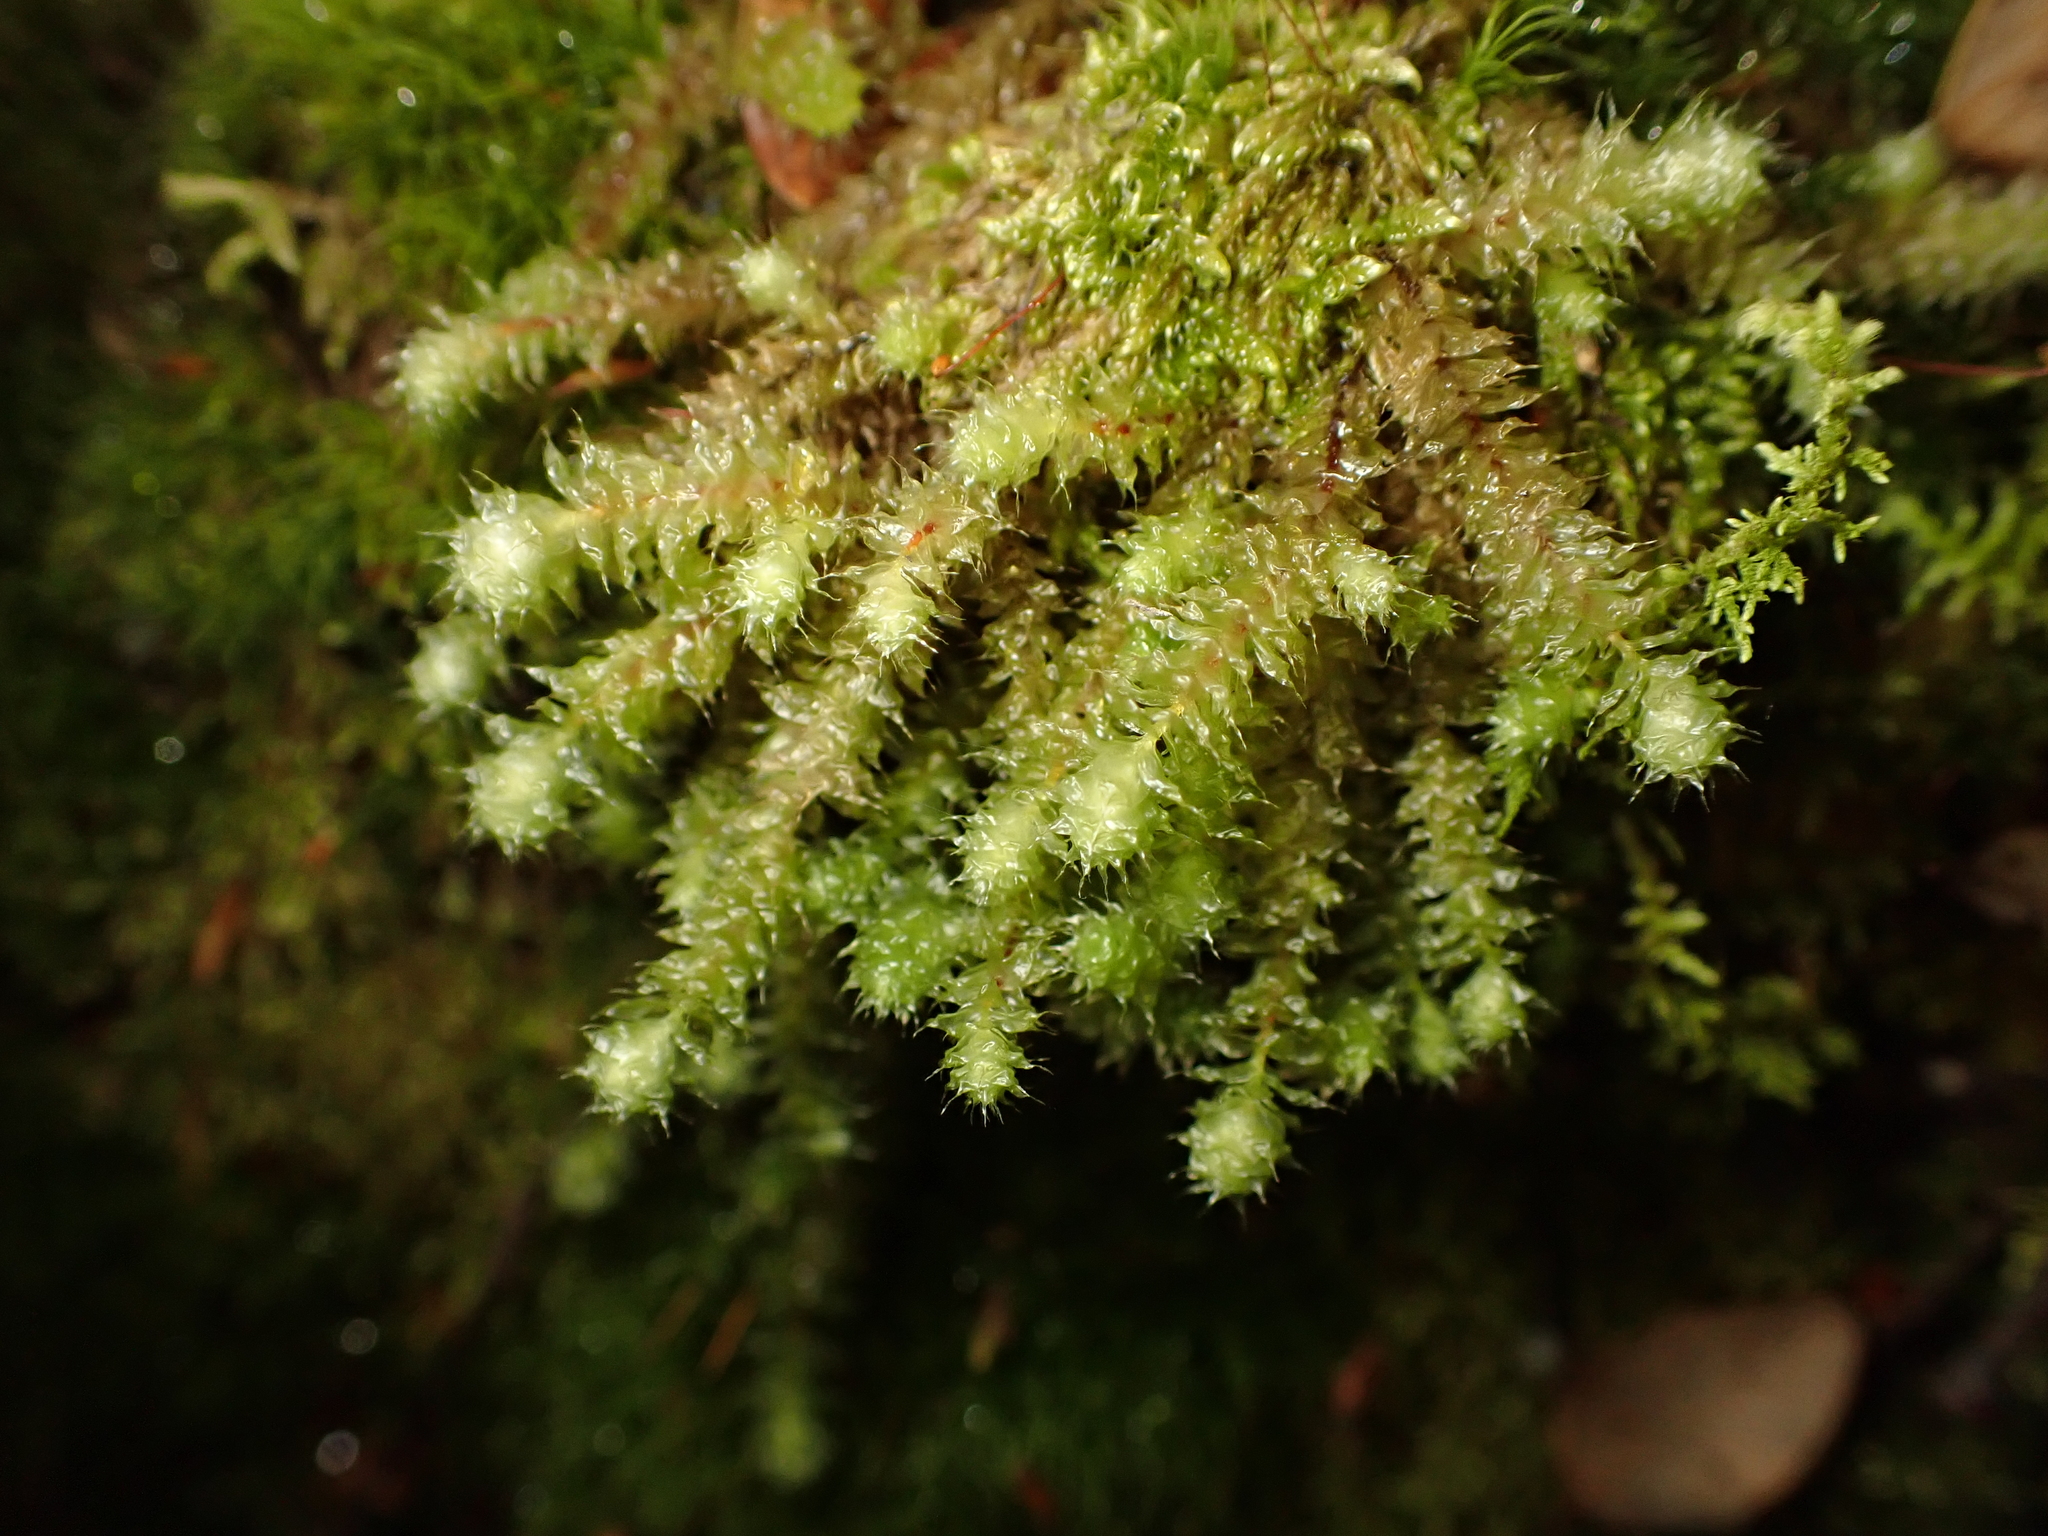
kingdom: Plantae
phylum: Bryophyta
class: Bryopsida
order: Ptychomniales
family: Ptychomniaceae
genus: Ptychomnion
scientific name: Ptychomnion aciculare
